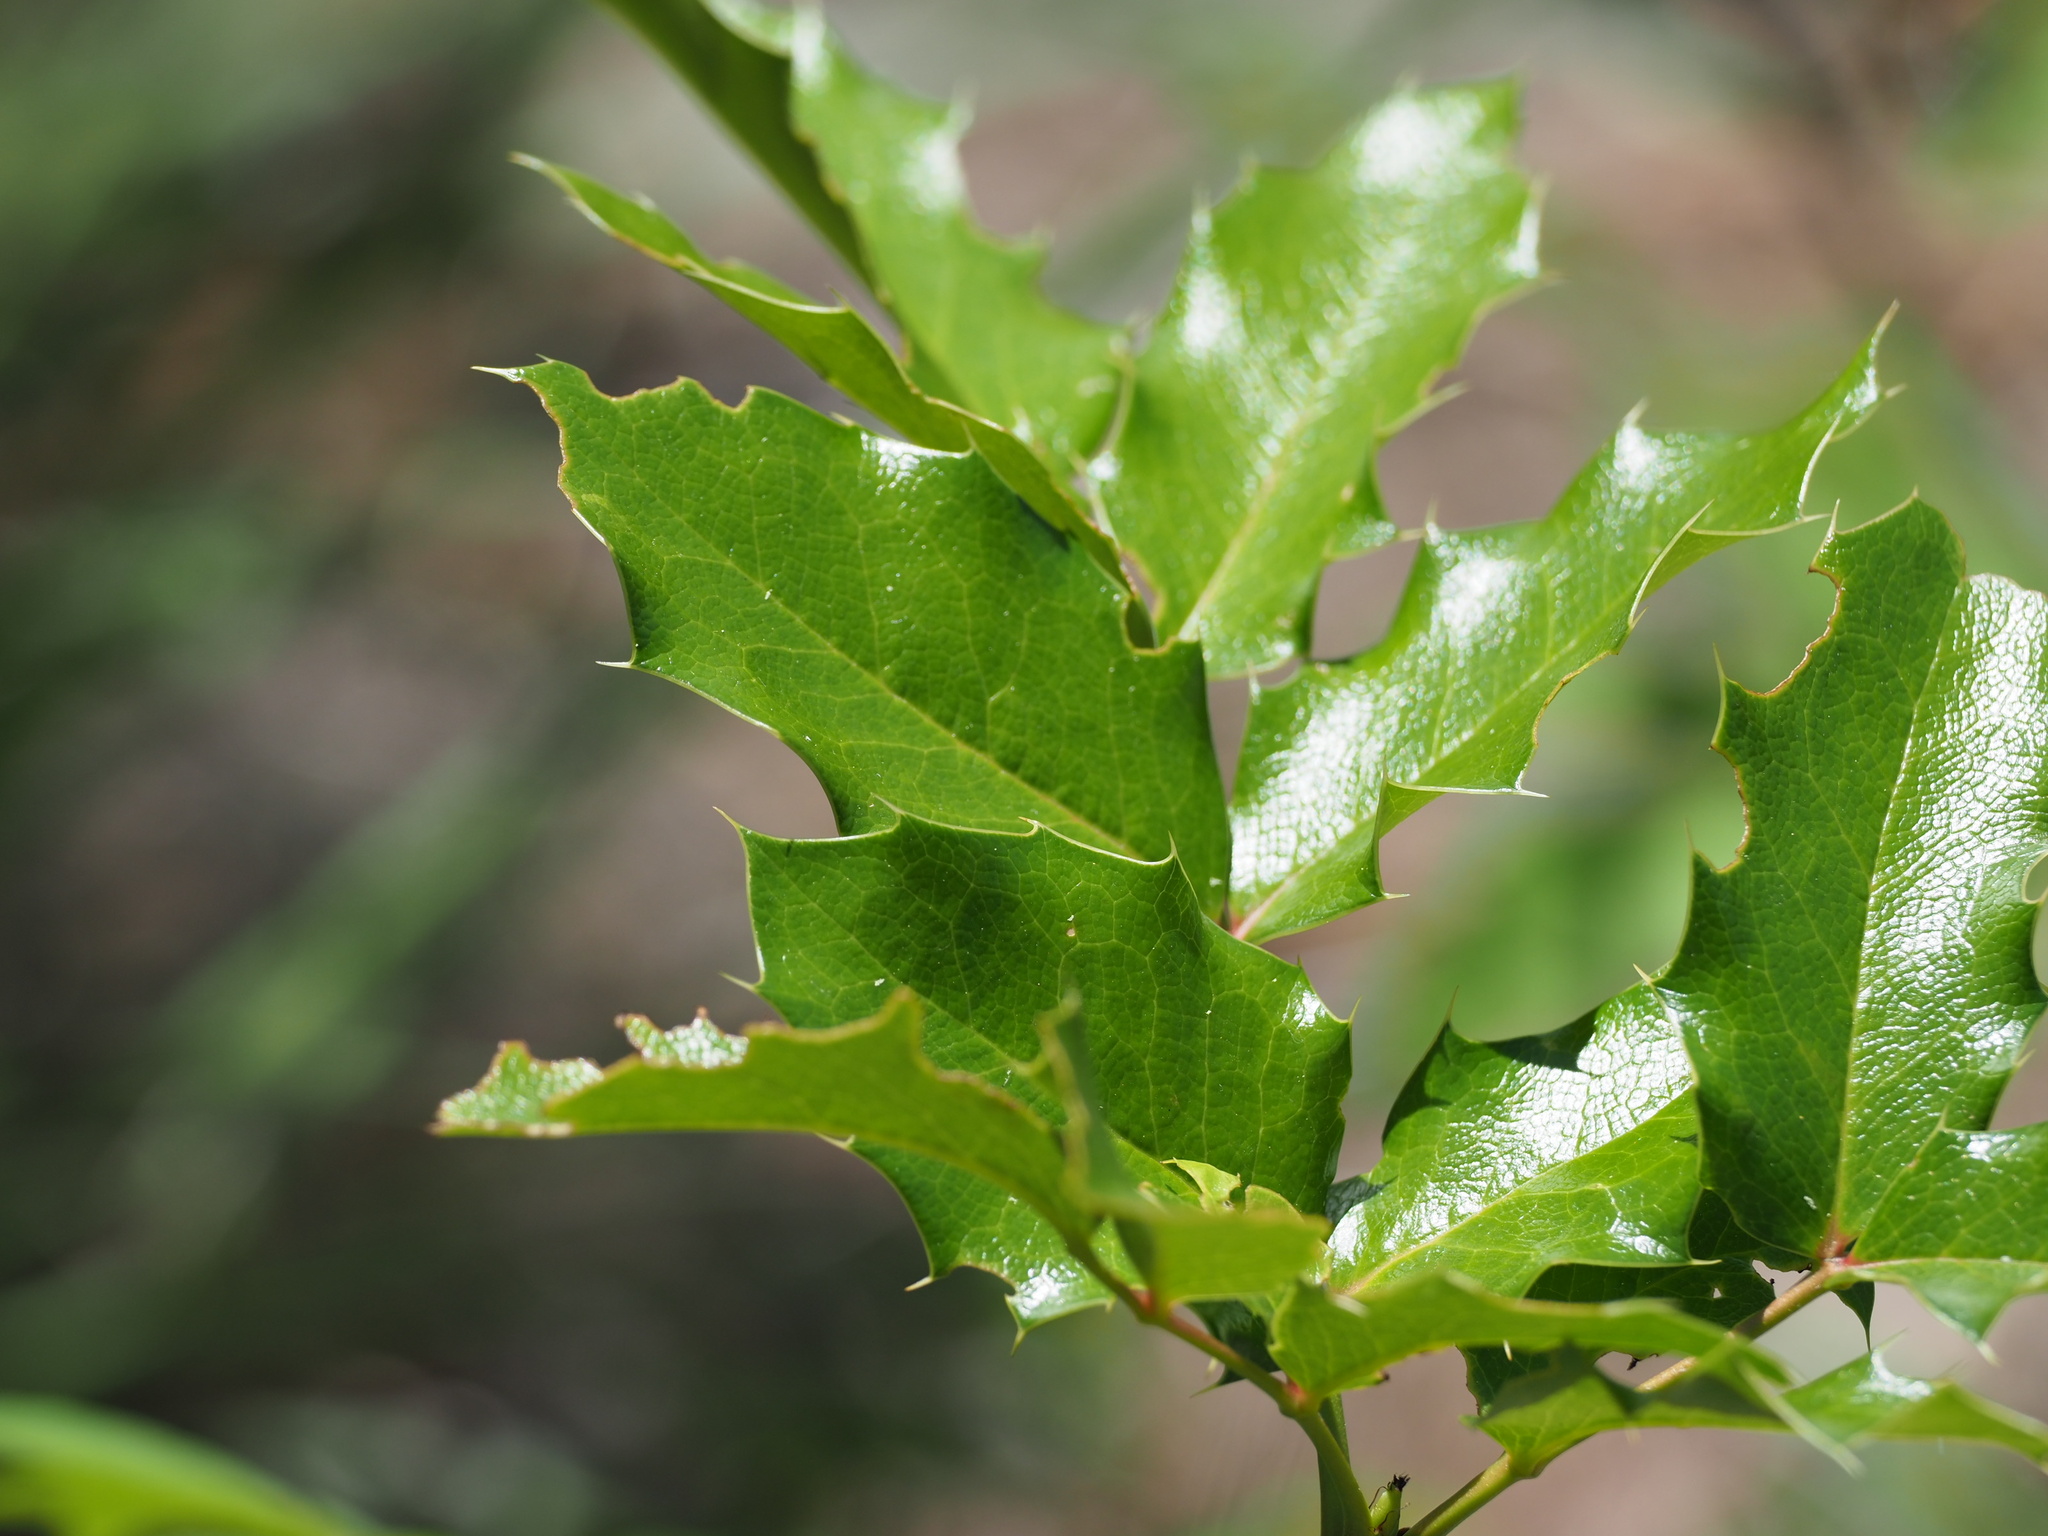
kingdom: Plantae
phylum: Tracheophyta
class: Magnoliopsida
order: Ranunculales
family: Berberidaceae
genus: Mahonia
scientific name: Mahonia aquifolium
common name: Oregon-grape
